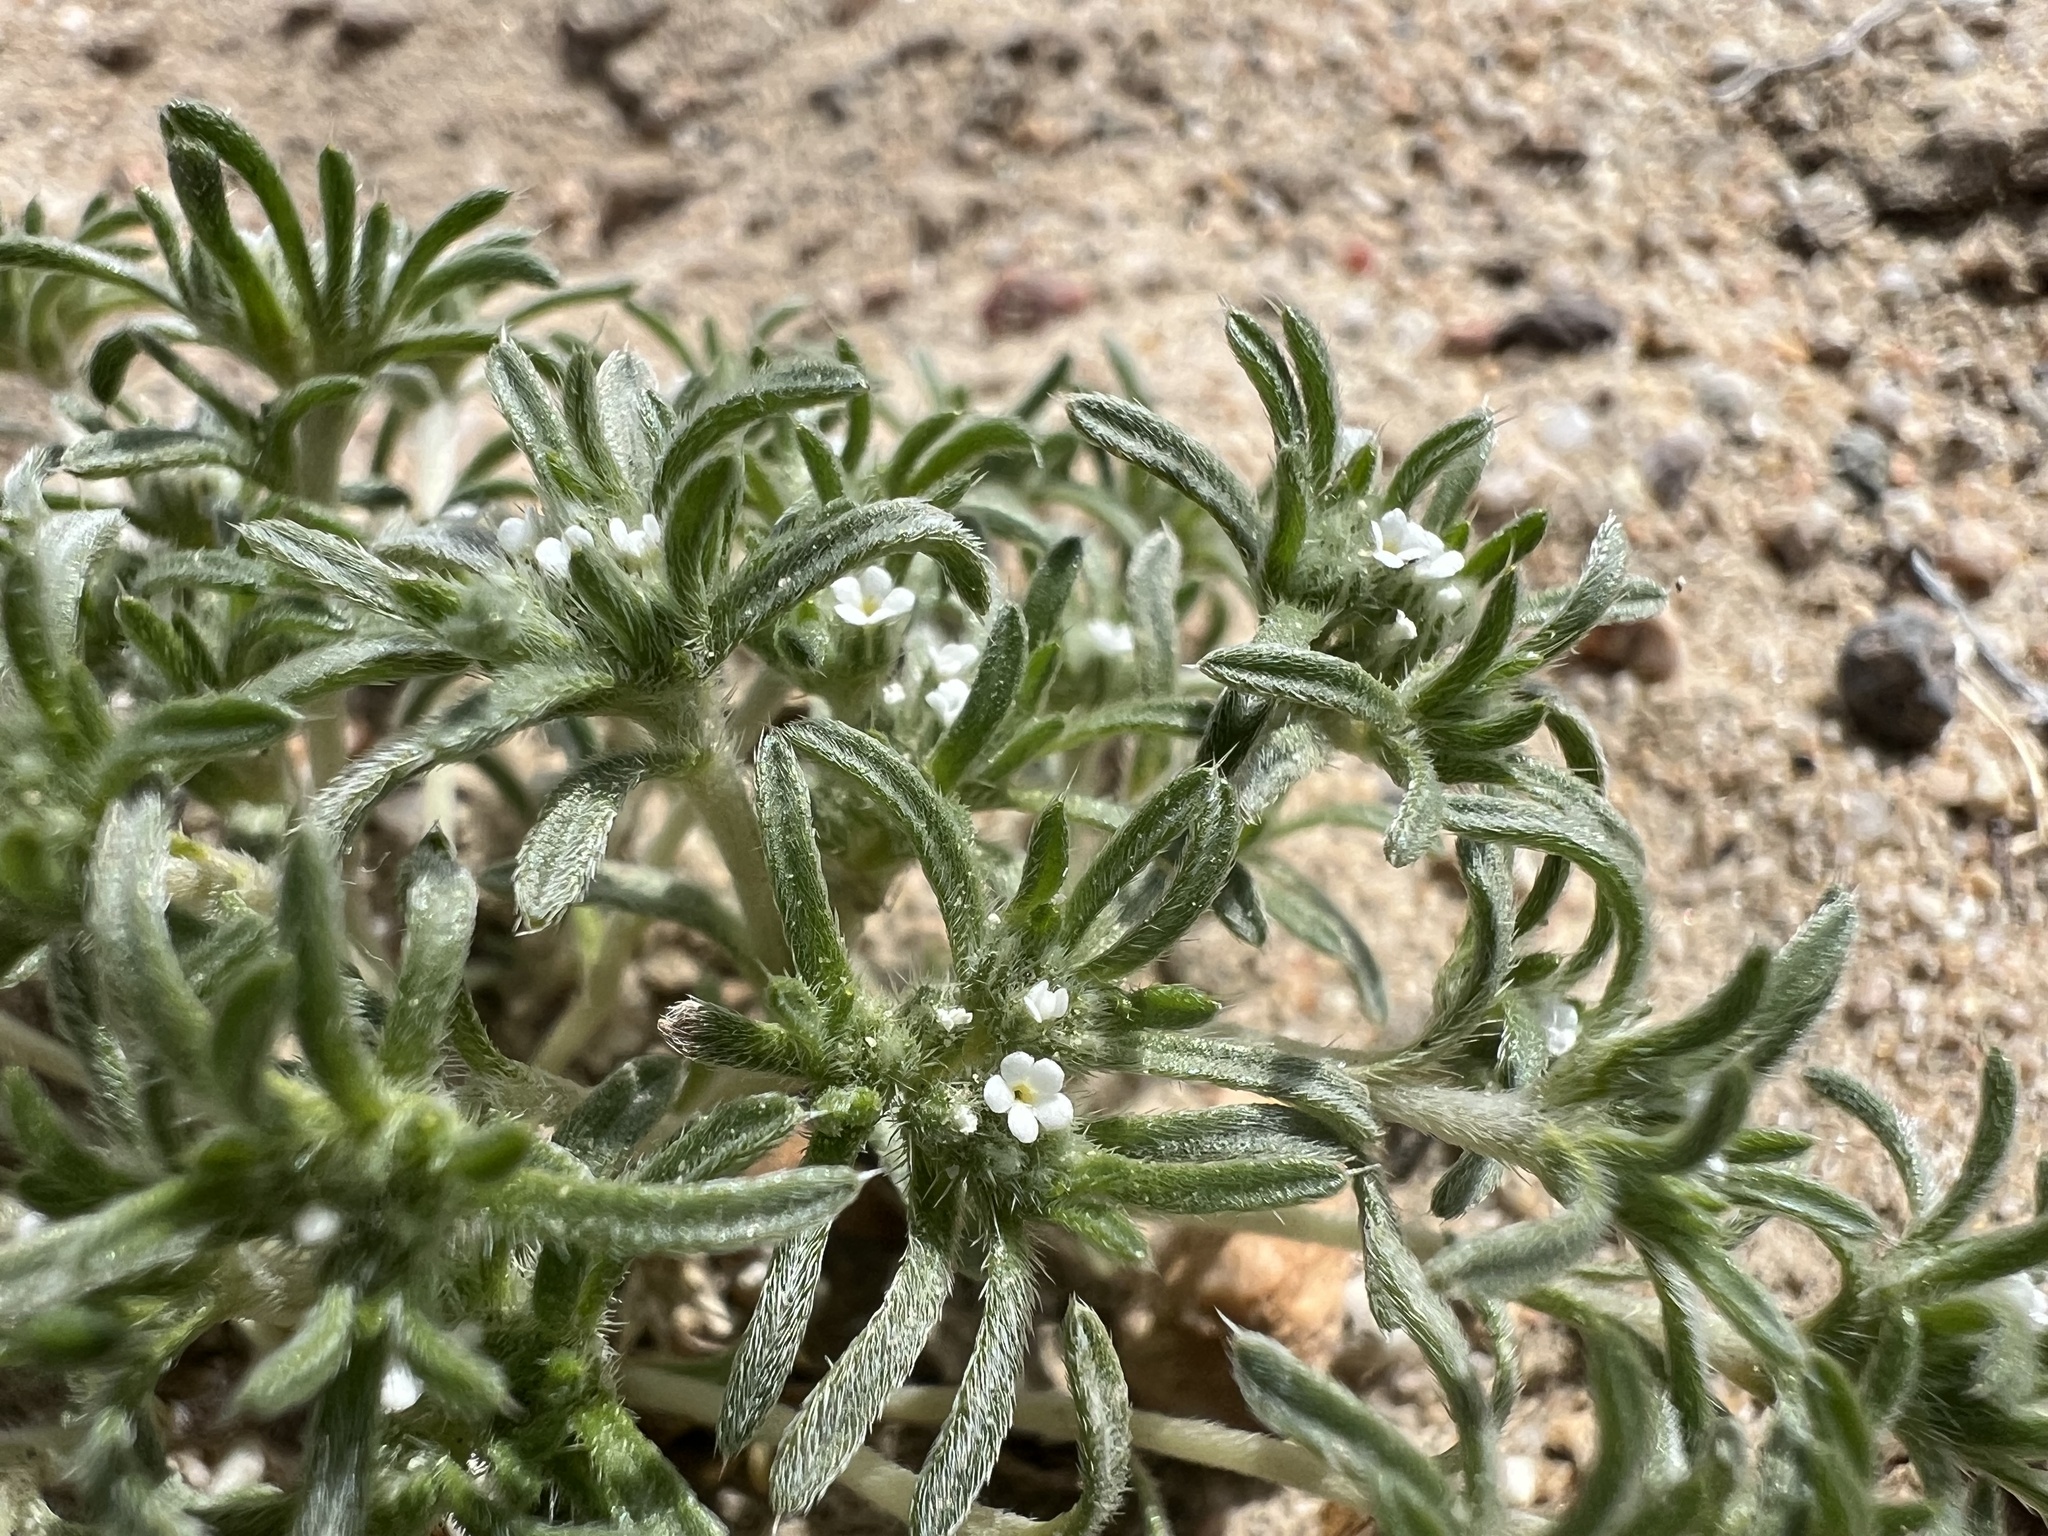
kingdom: Plantae
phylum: Tracheophyta
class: Magnoliopsida
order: Boraginales
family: Boraginaceae
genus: Greeneocharis
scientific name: Greeneocharis circumscissa
